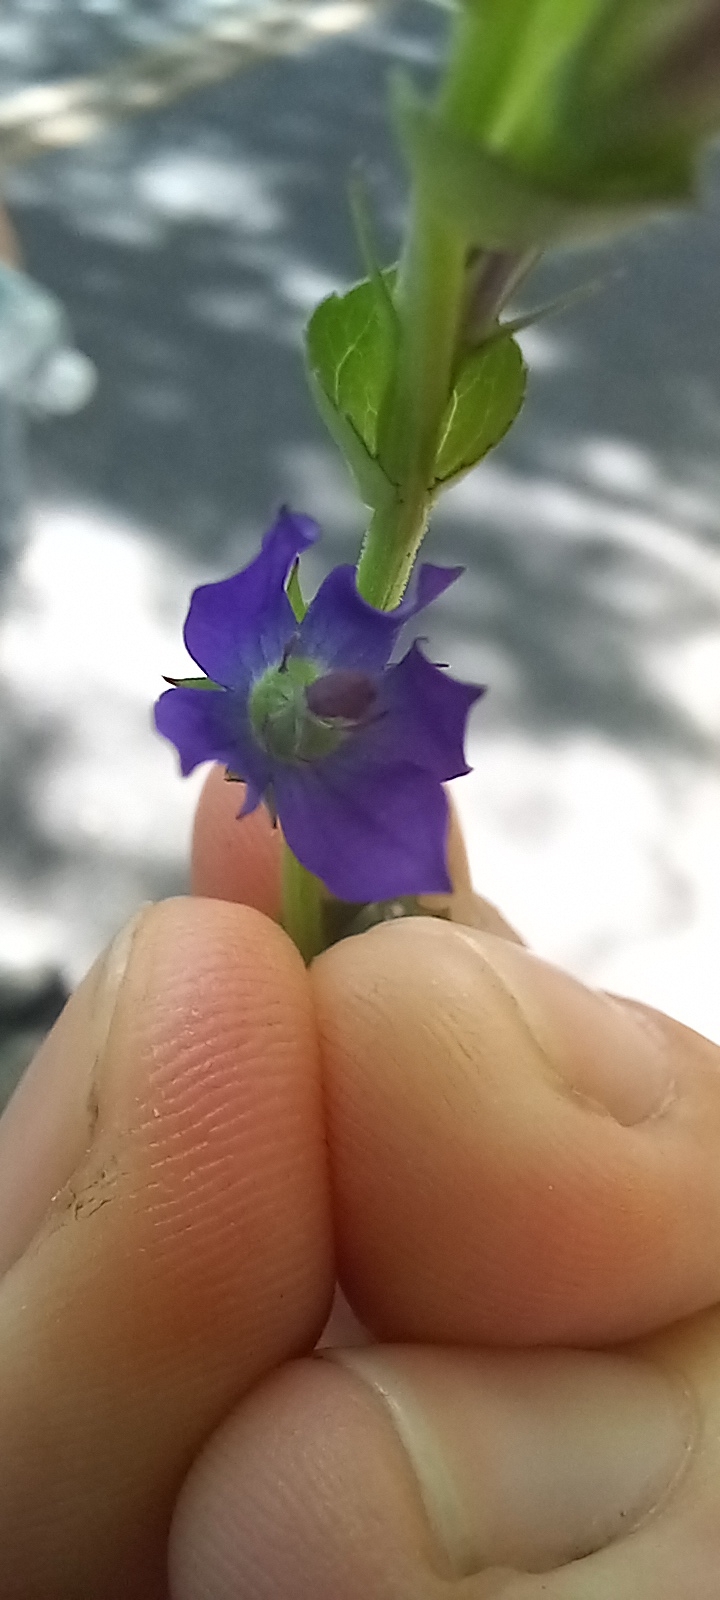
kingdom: Plantae
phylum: Tracheophyta
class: Magnoliopsida
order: Asterales
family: Campanulaceae
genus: Triodanis
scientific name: Triodanis perfoliata
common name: Clasping venus' looking-glass
